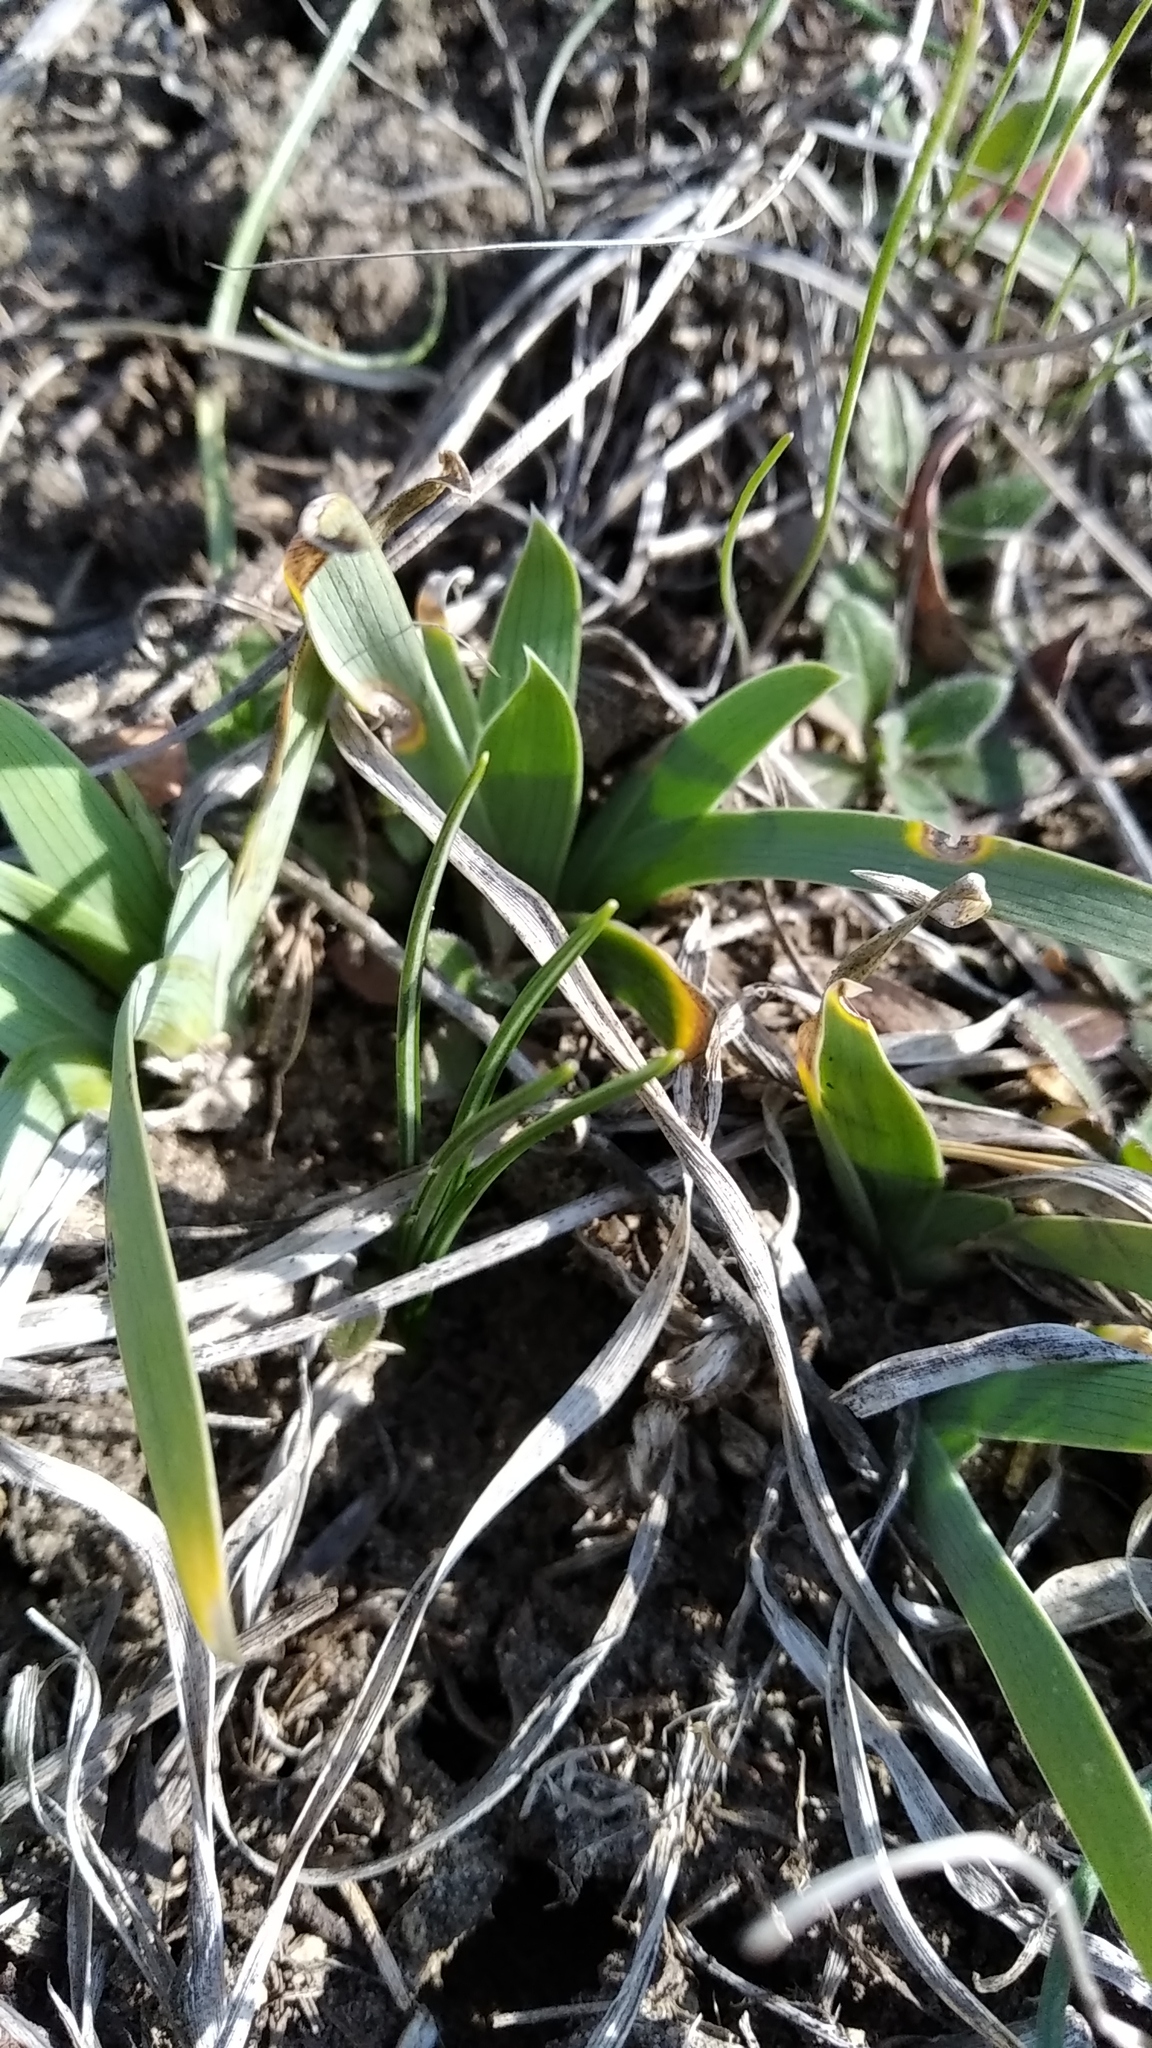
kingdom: Plantae
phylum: Tracheophyta
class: Liliopsida
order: Asparagales
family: Iridaceae
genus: Iris
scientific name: Iris pumila
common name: Dwarf iris
